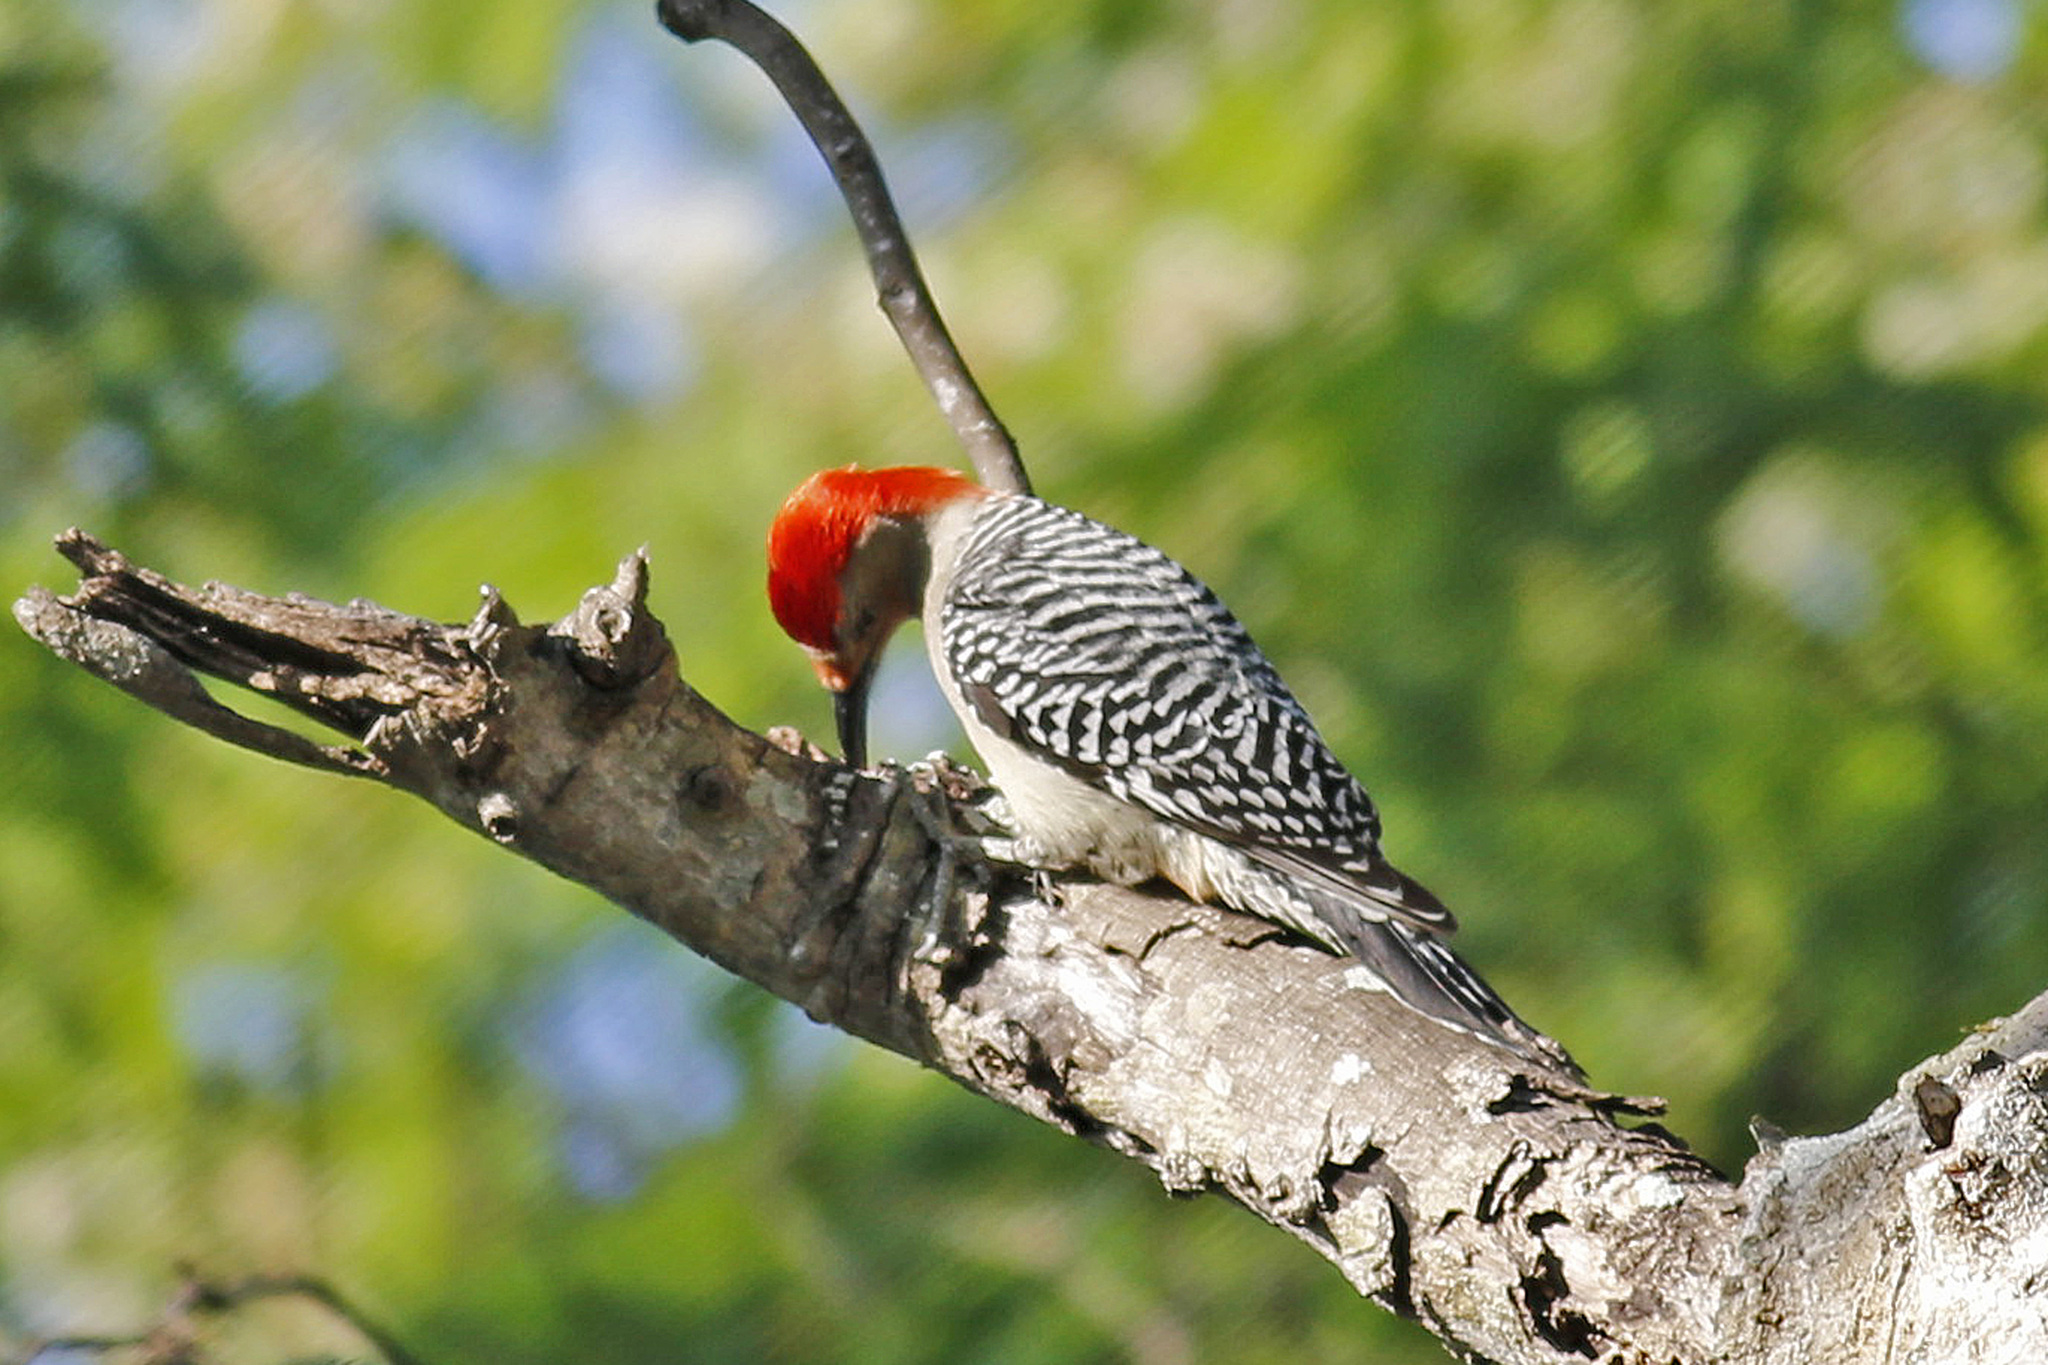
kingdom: Animalia
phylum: Chordata
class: Aves
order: Piciformes
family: Picidae
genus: Melanerpes
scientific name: Melanerpes carolinus
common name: Red-bellied woodpecker
